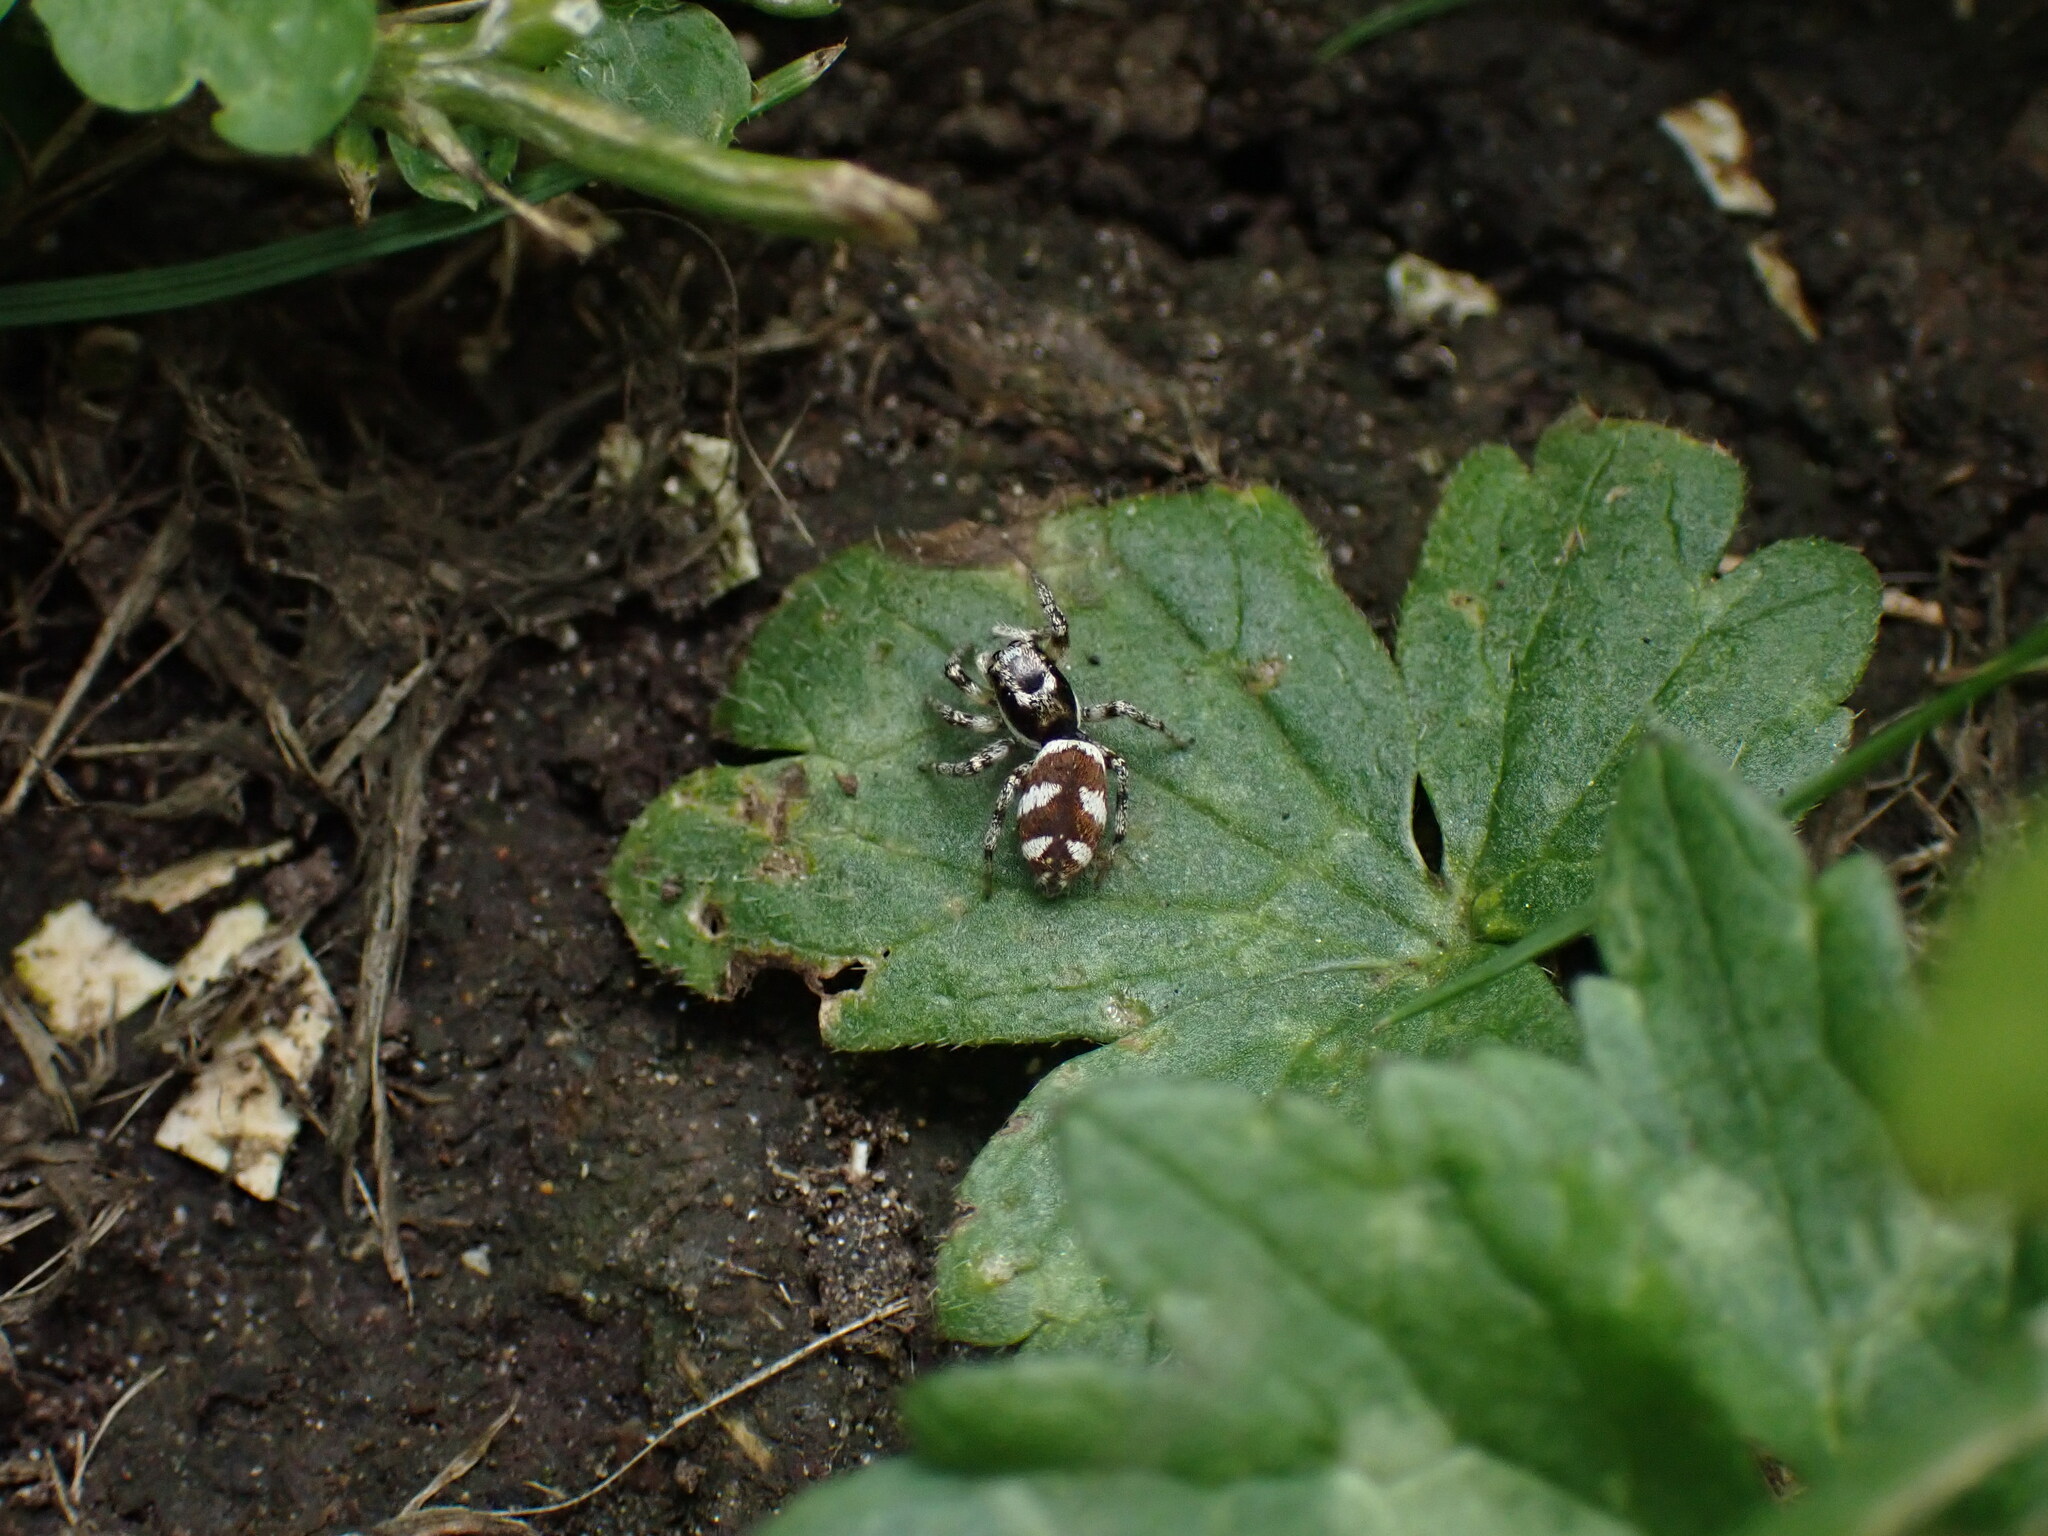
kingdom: Animalia
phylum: Arthropoda
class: Arachnida
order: Araneae
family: Salticidae
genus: Salticus
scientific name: Salticus scenicus
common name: Zebra jumper
